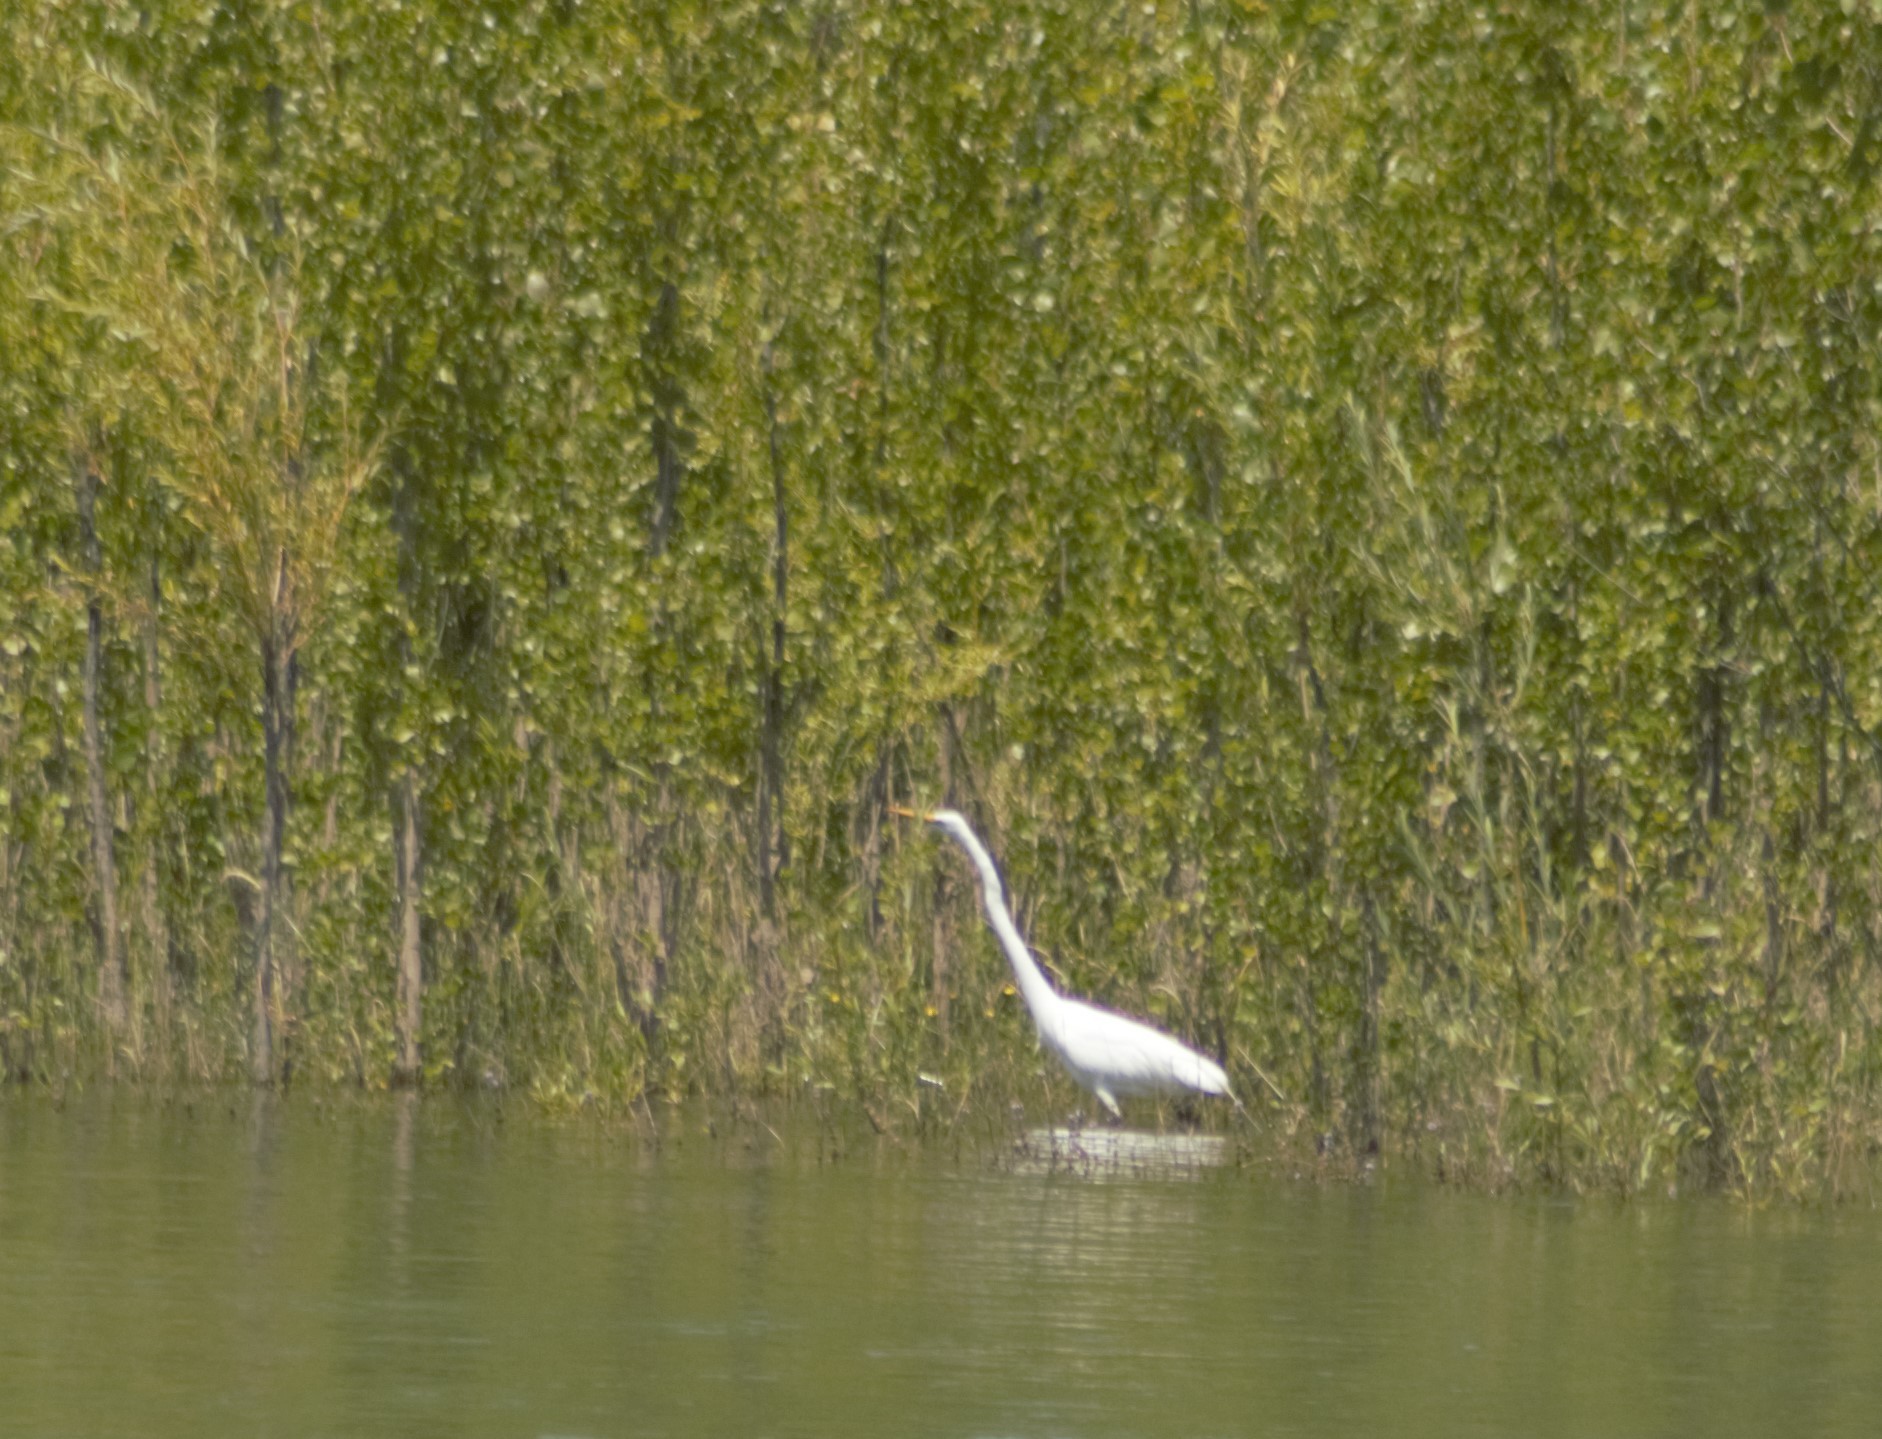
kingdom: Animalia
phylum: Chordata
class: Aves
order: Pelecaniformes
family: Ardeidae
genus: Ardea
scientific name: Ardea alba
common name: Great egret
